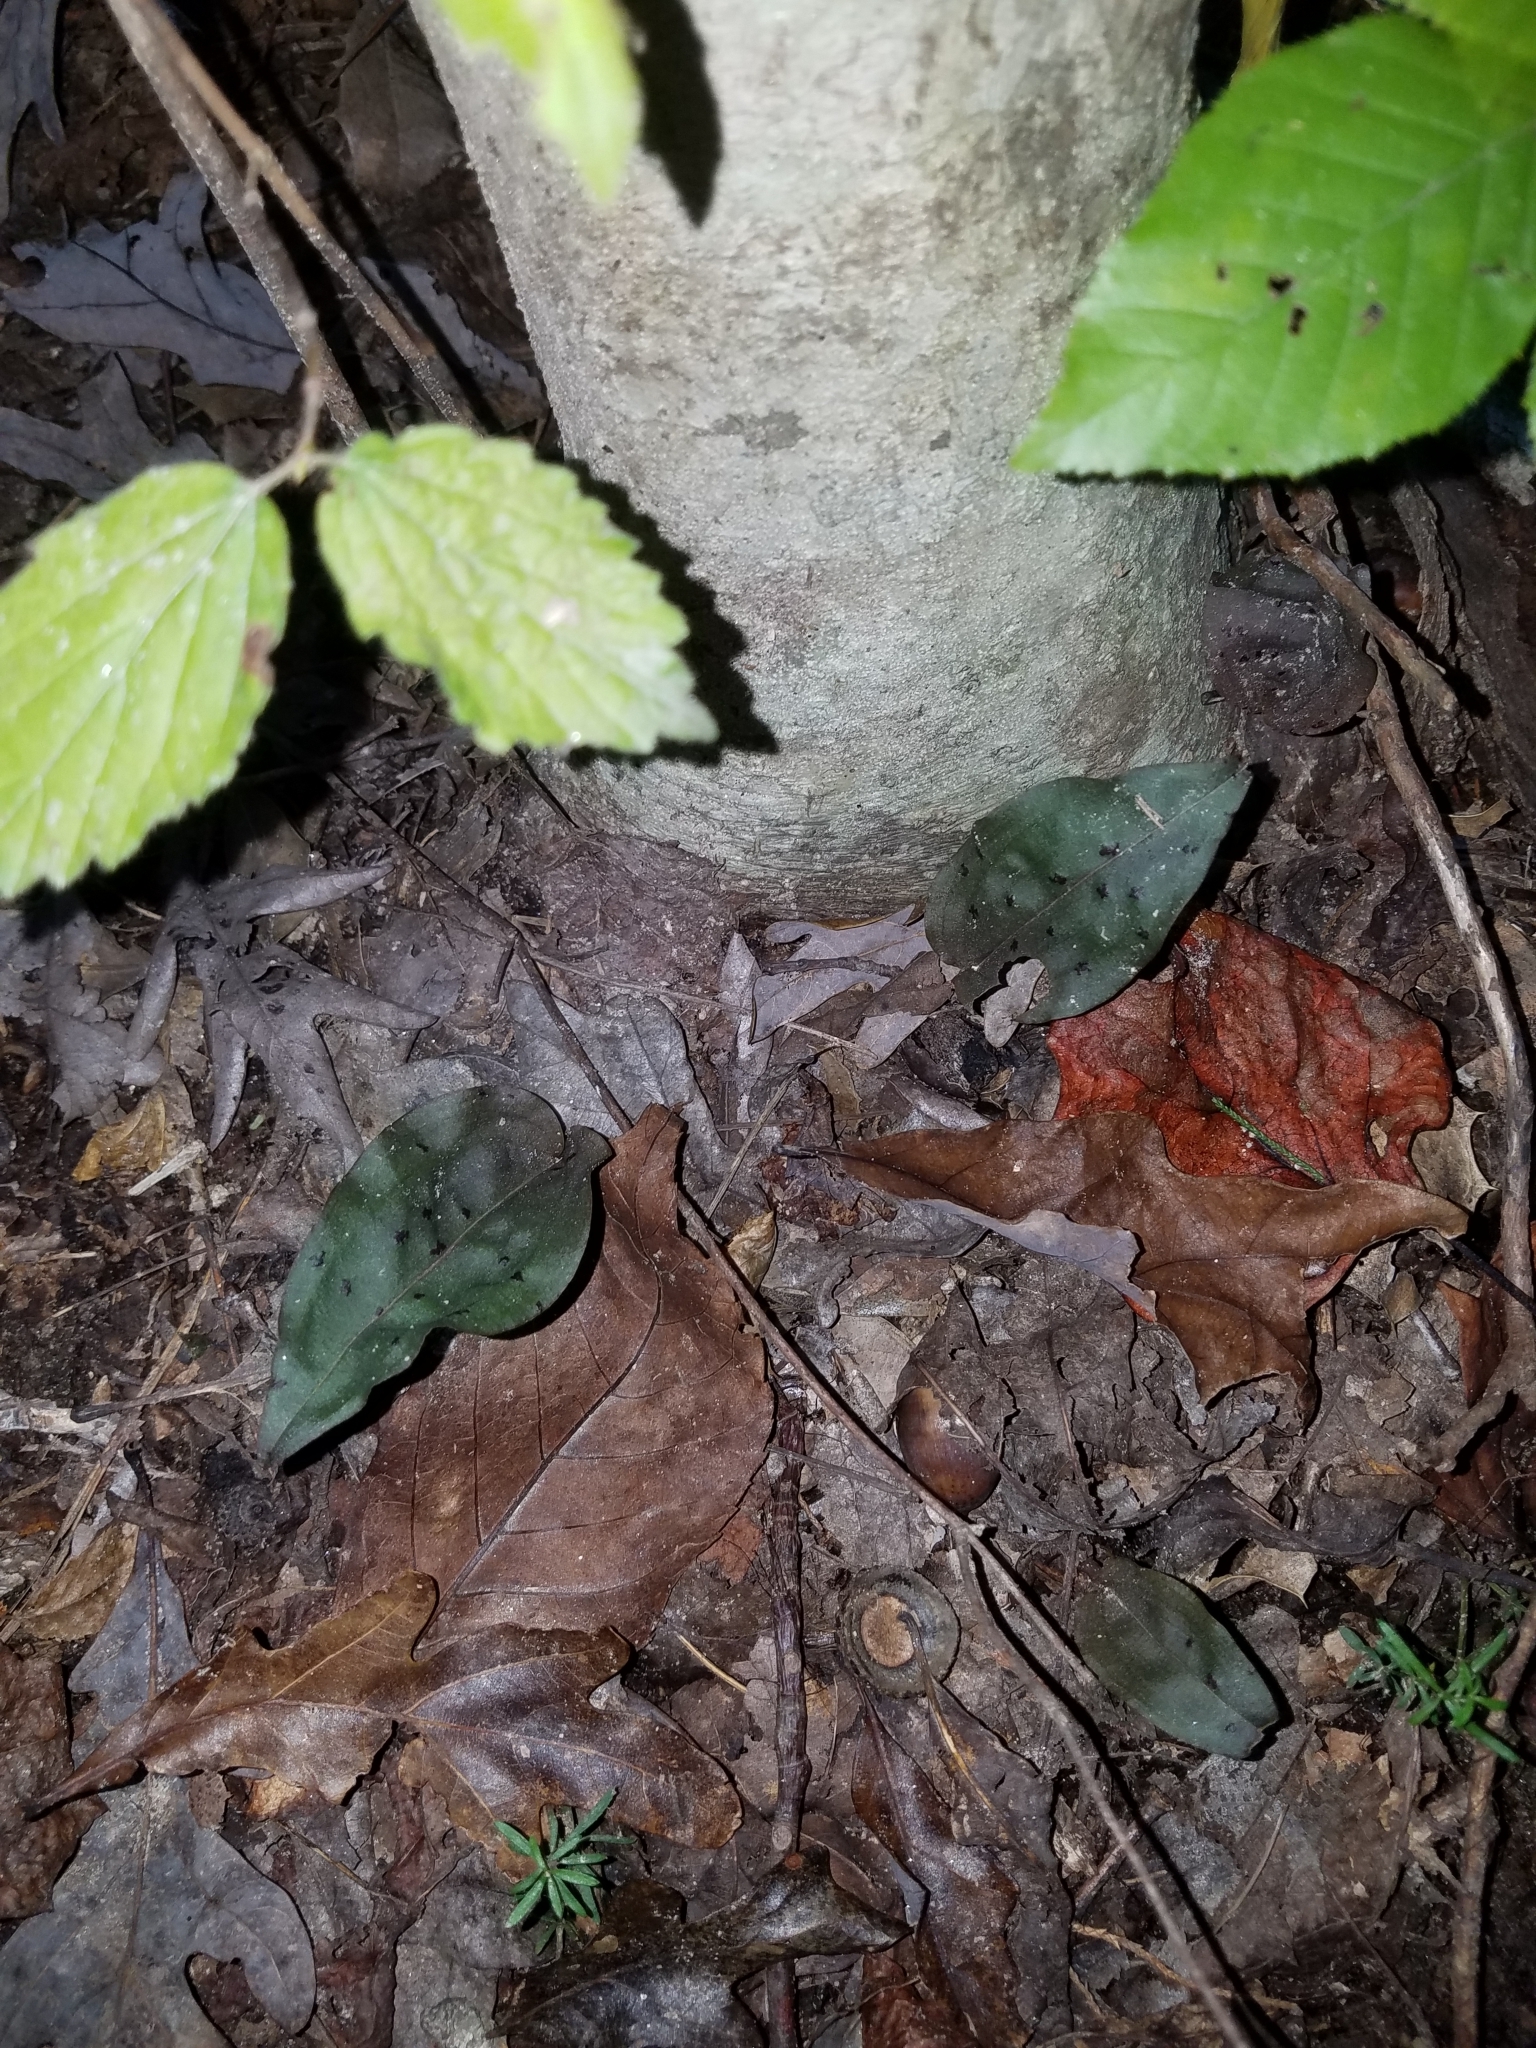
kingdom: Plantae
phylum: Tracheophyta
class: Liliopsida
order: Asparagales
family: Orchidaceae
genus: Tipularia
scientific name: Tipularia discolor
